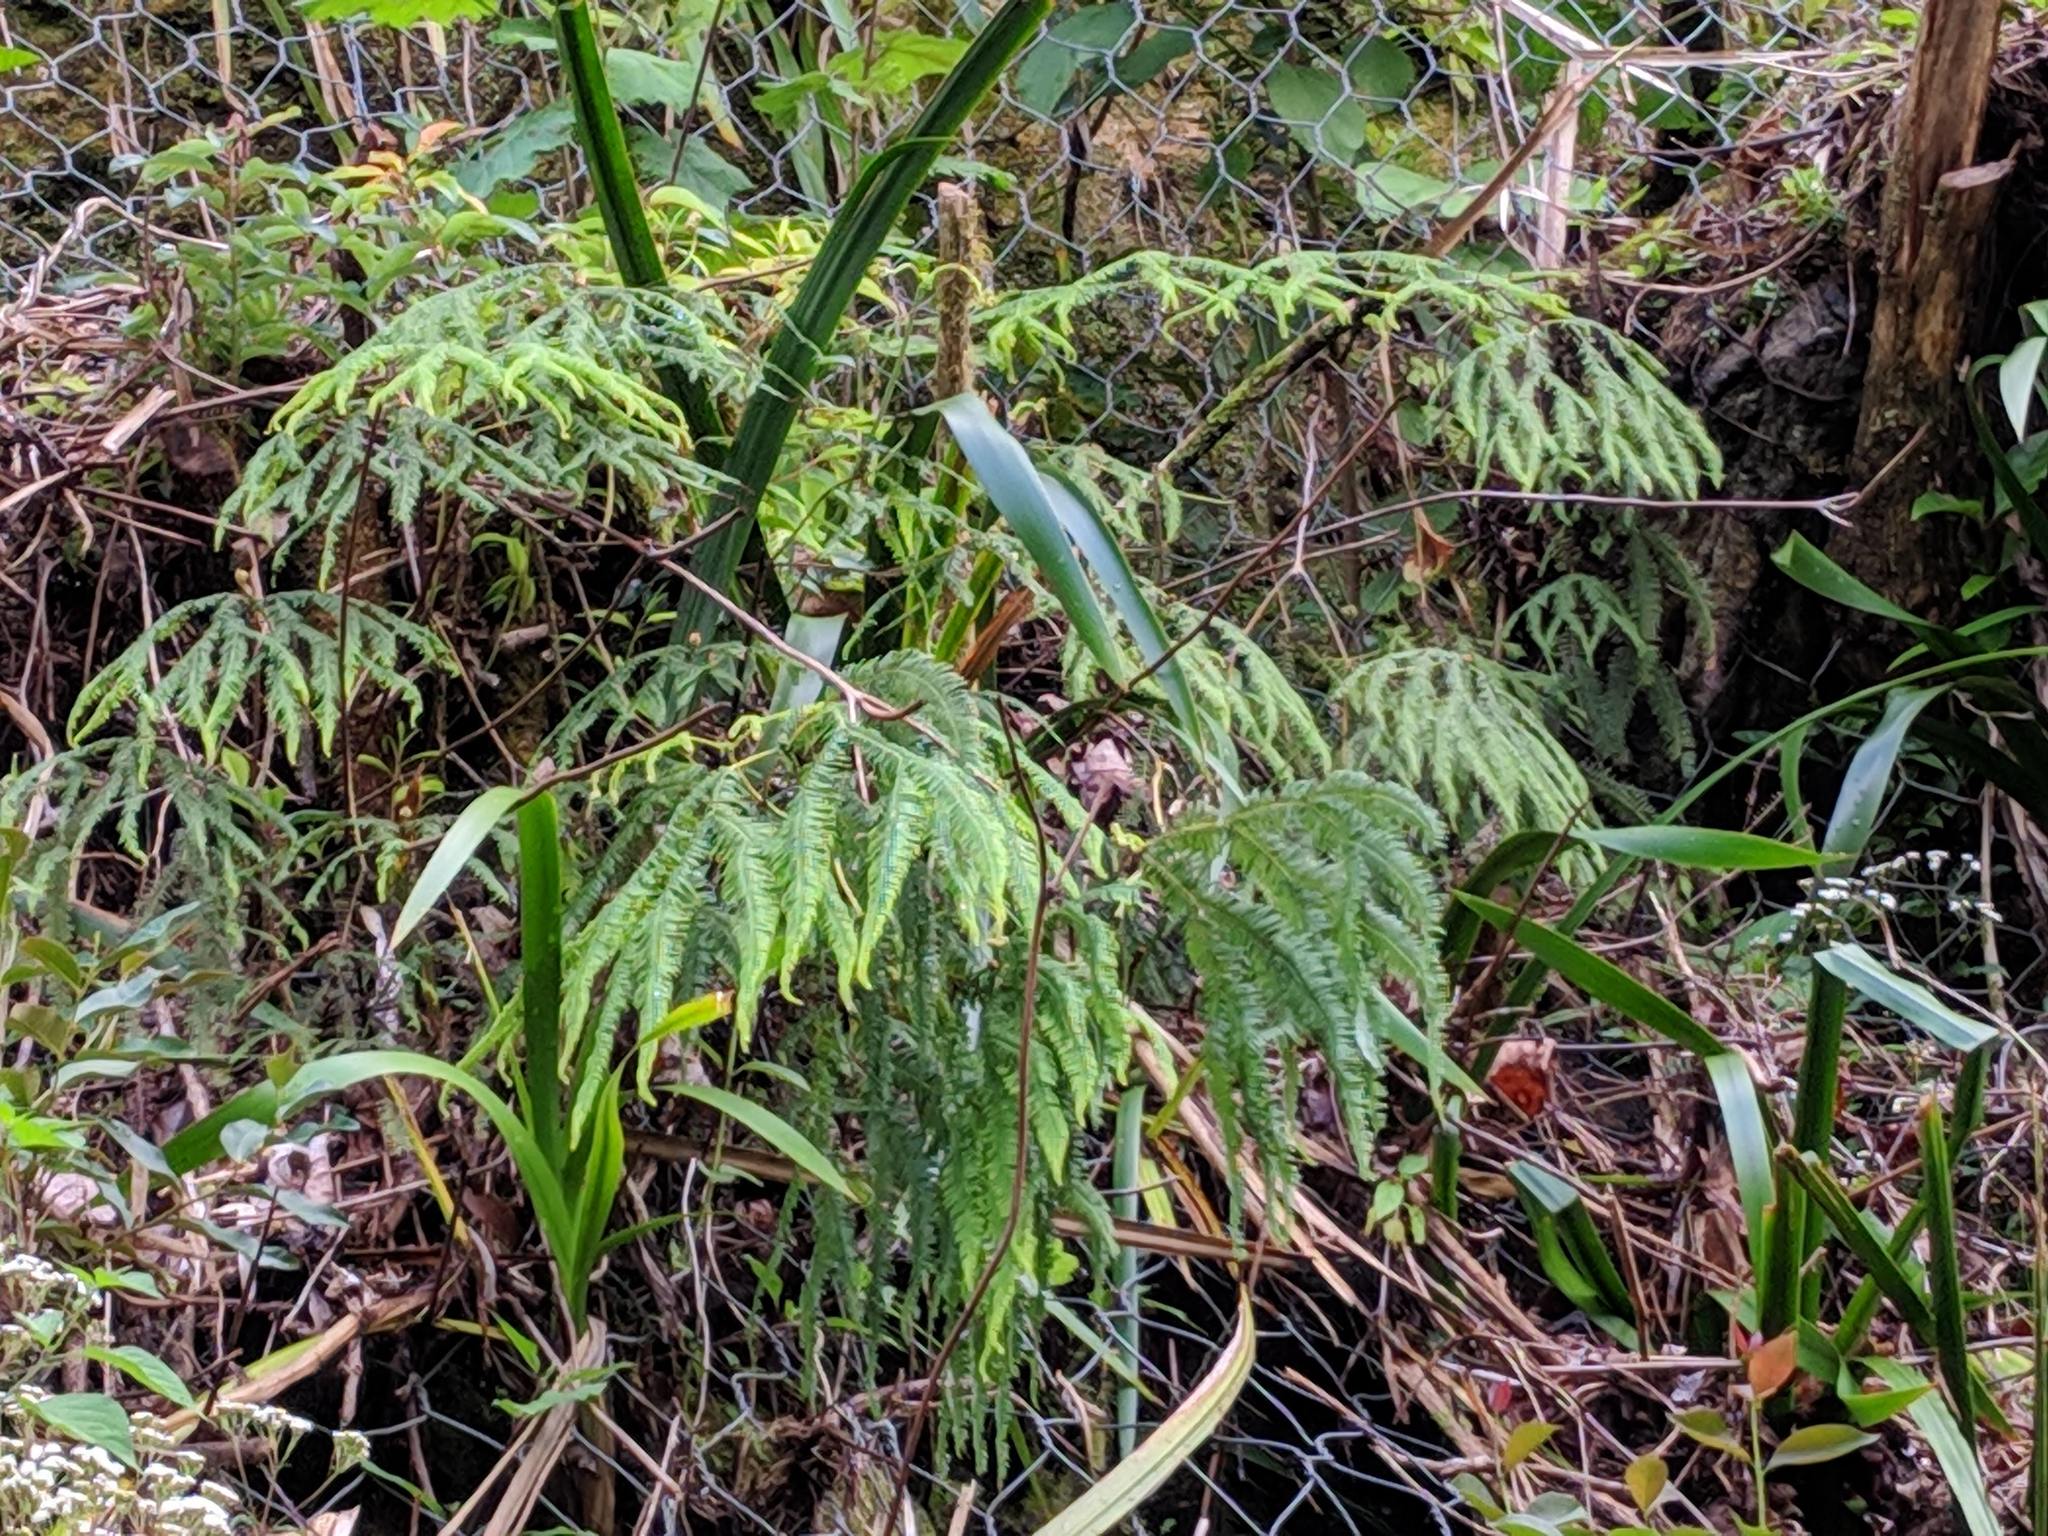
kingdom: Plantae
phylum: Tracheophyta
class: Polypodiopsida
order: Gleicheniales
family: Gleicheniaceae
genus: Sticherus
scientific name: Sticherus flagellaris
